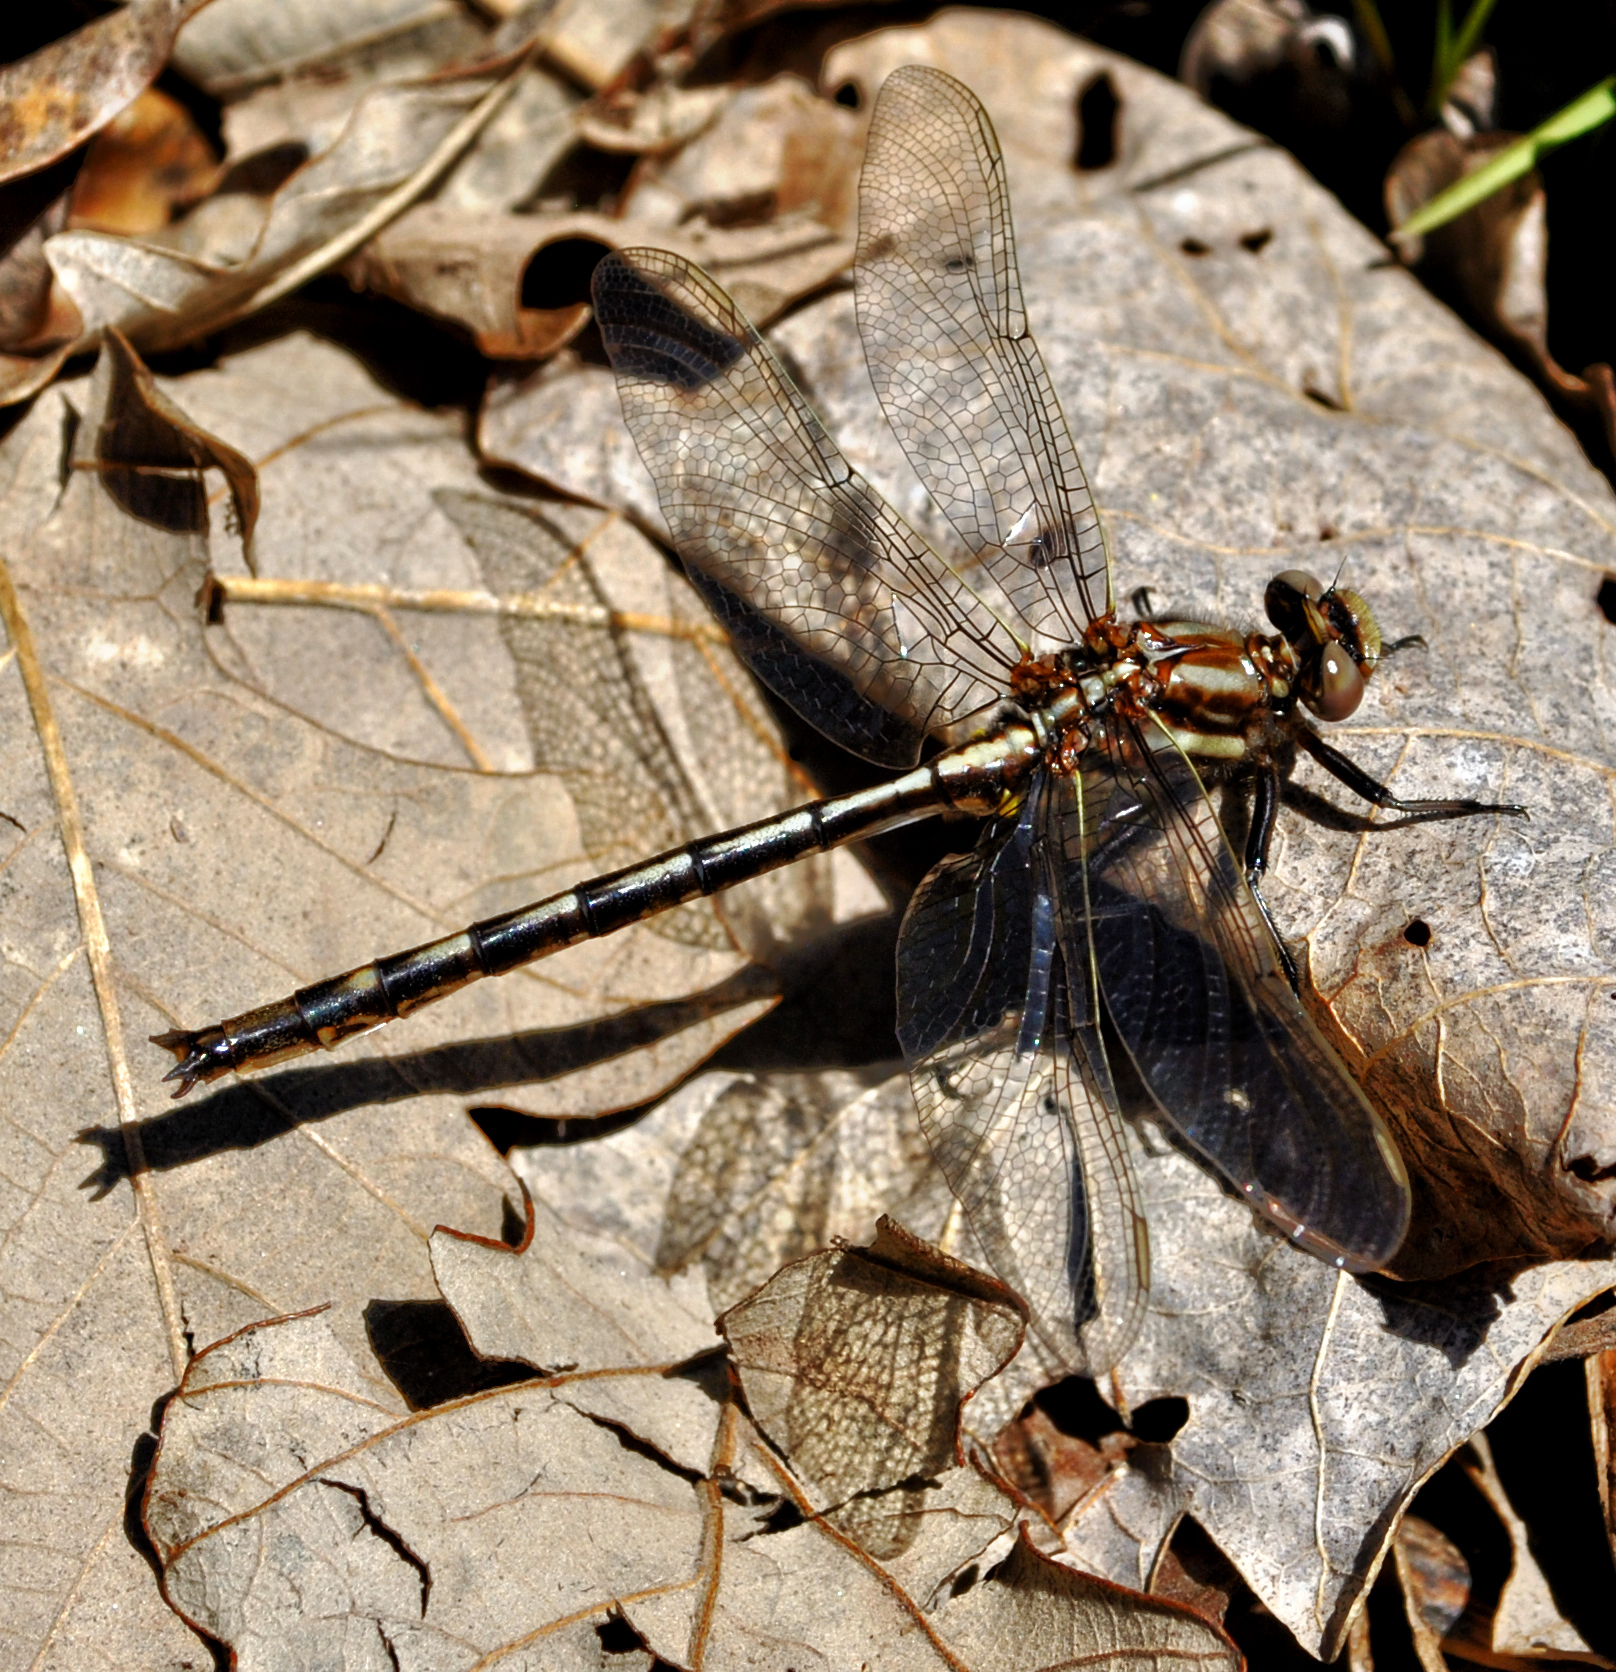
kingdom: Animalia
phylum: Arthropoda
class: Insecta
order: Odonata
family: Gomphidae
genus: Phanogomphus
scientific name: Phanogomphus spicatus
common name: Dusky clubtail
